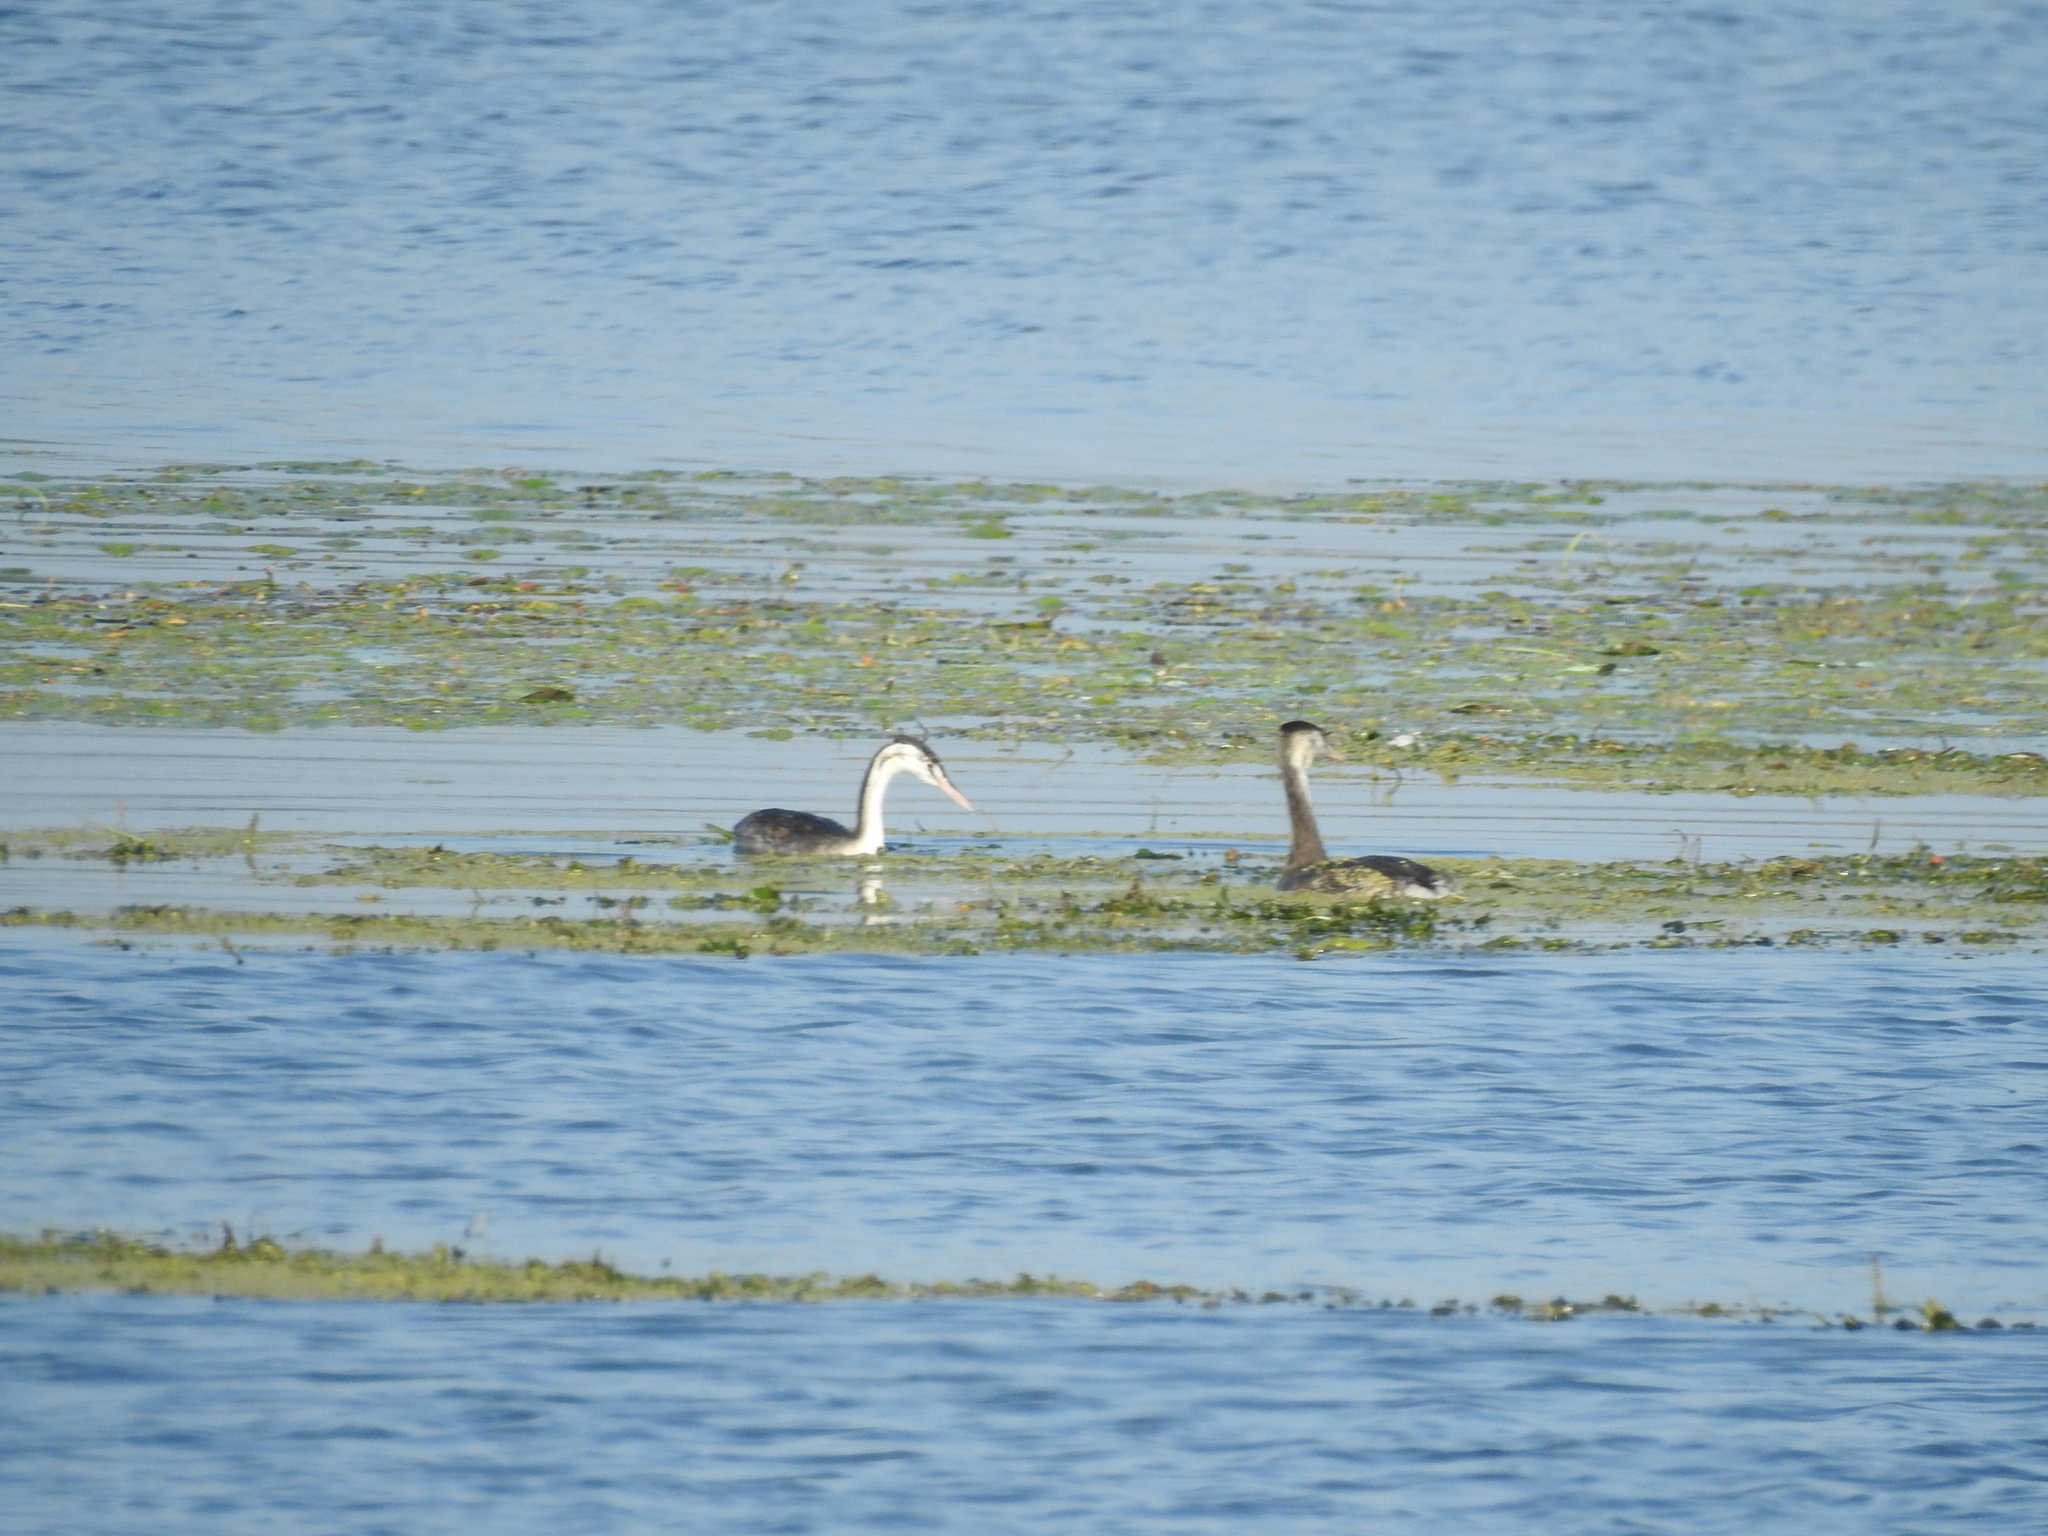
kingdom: Animalia
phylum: Chordata
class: Aves
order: Podicipediformes
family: Podicipedidae
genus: Podiceps
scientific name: Podiceps cristatus
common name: Great crested grebe
